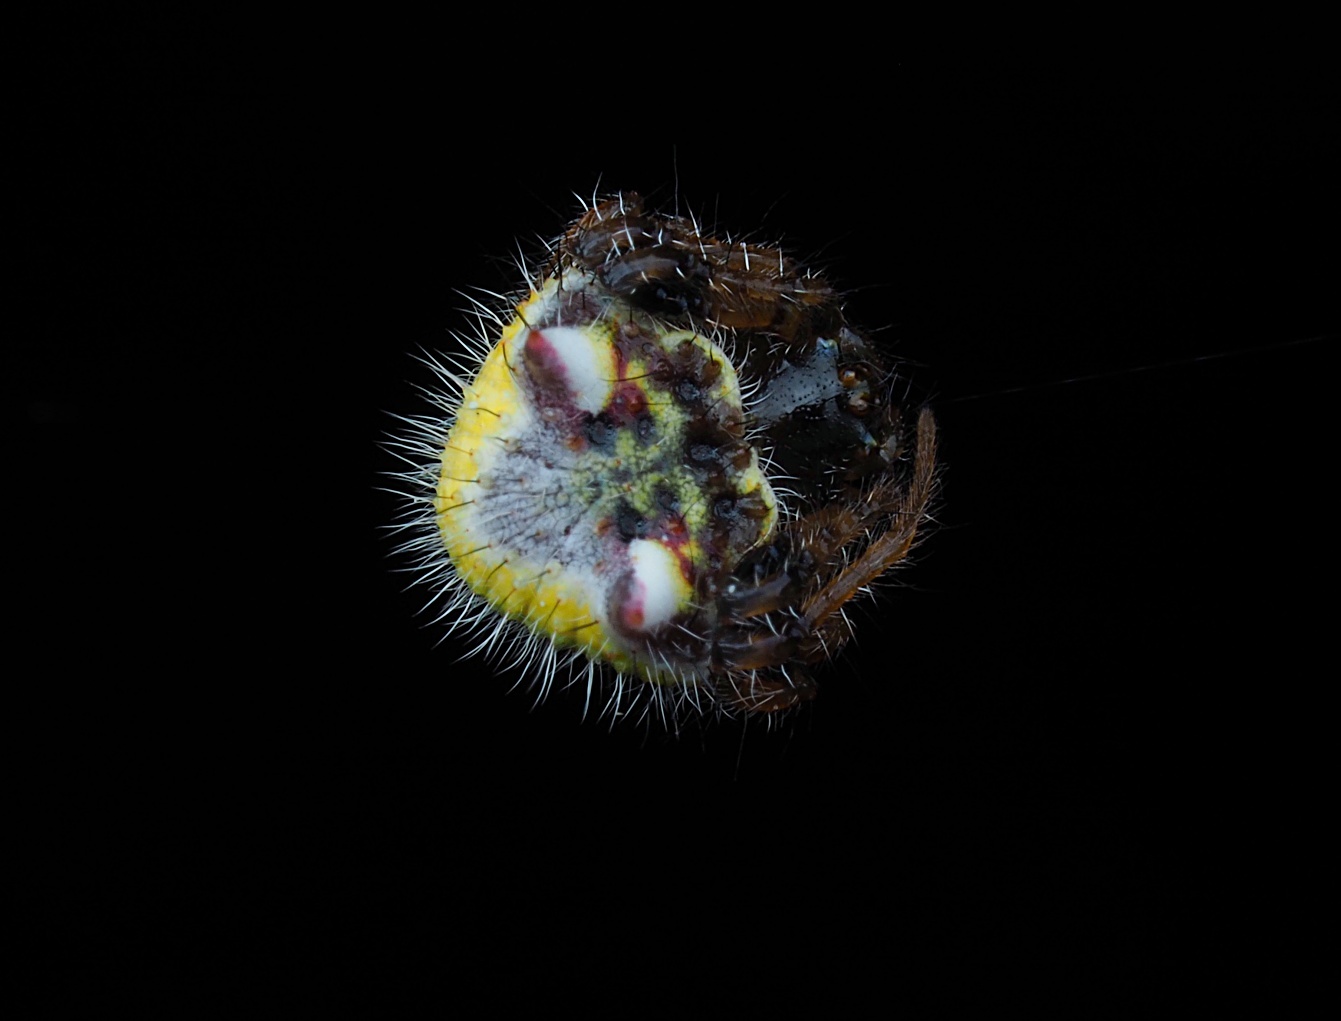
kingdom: Animalia
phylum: Arthropoda
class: Arachnida
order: Araneae
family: Araneidae
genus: Poecilopachys
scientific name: Poecilopachys australasia
